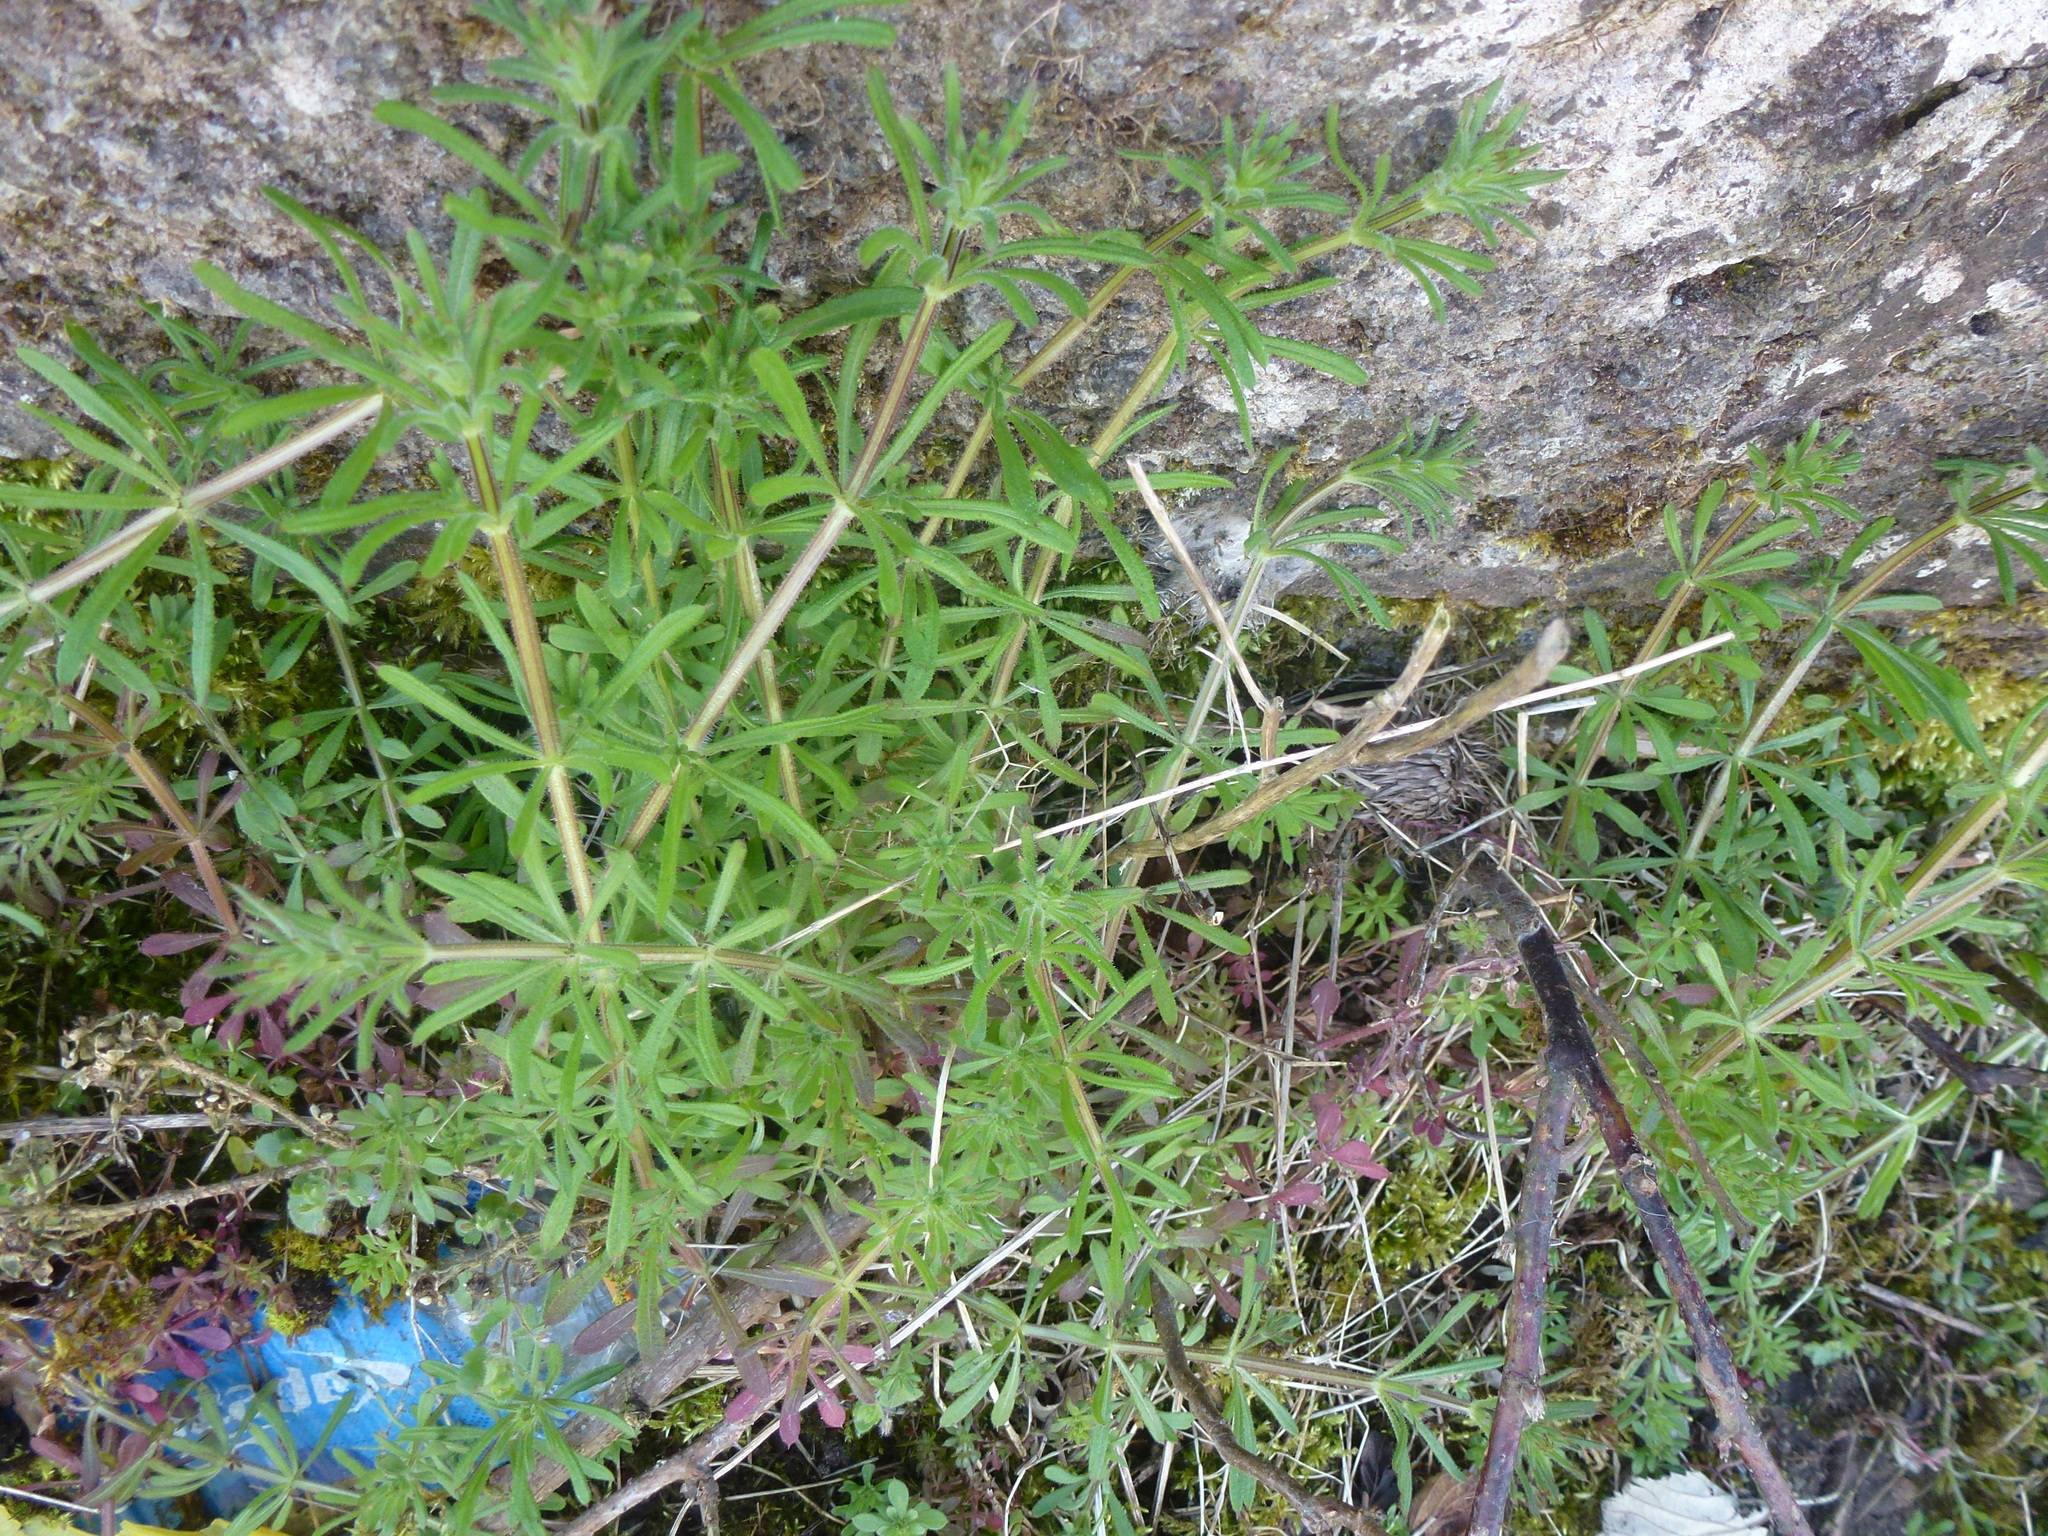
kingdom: Plantae
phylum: Tracheophyta
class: Magnoliopsida
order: Gentianales
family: Rubiaceae
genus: Galium
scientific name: Galium aparine
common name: Cleavers
